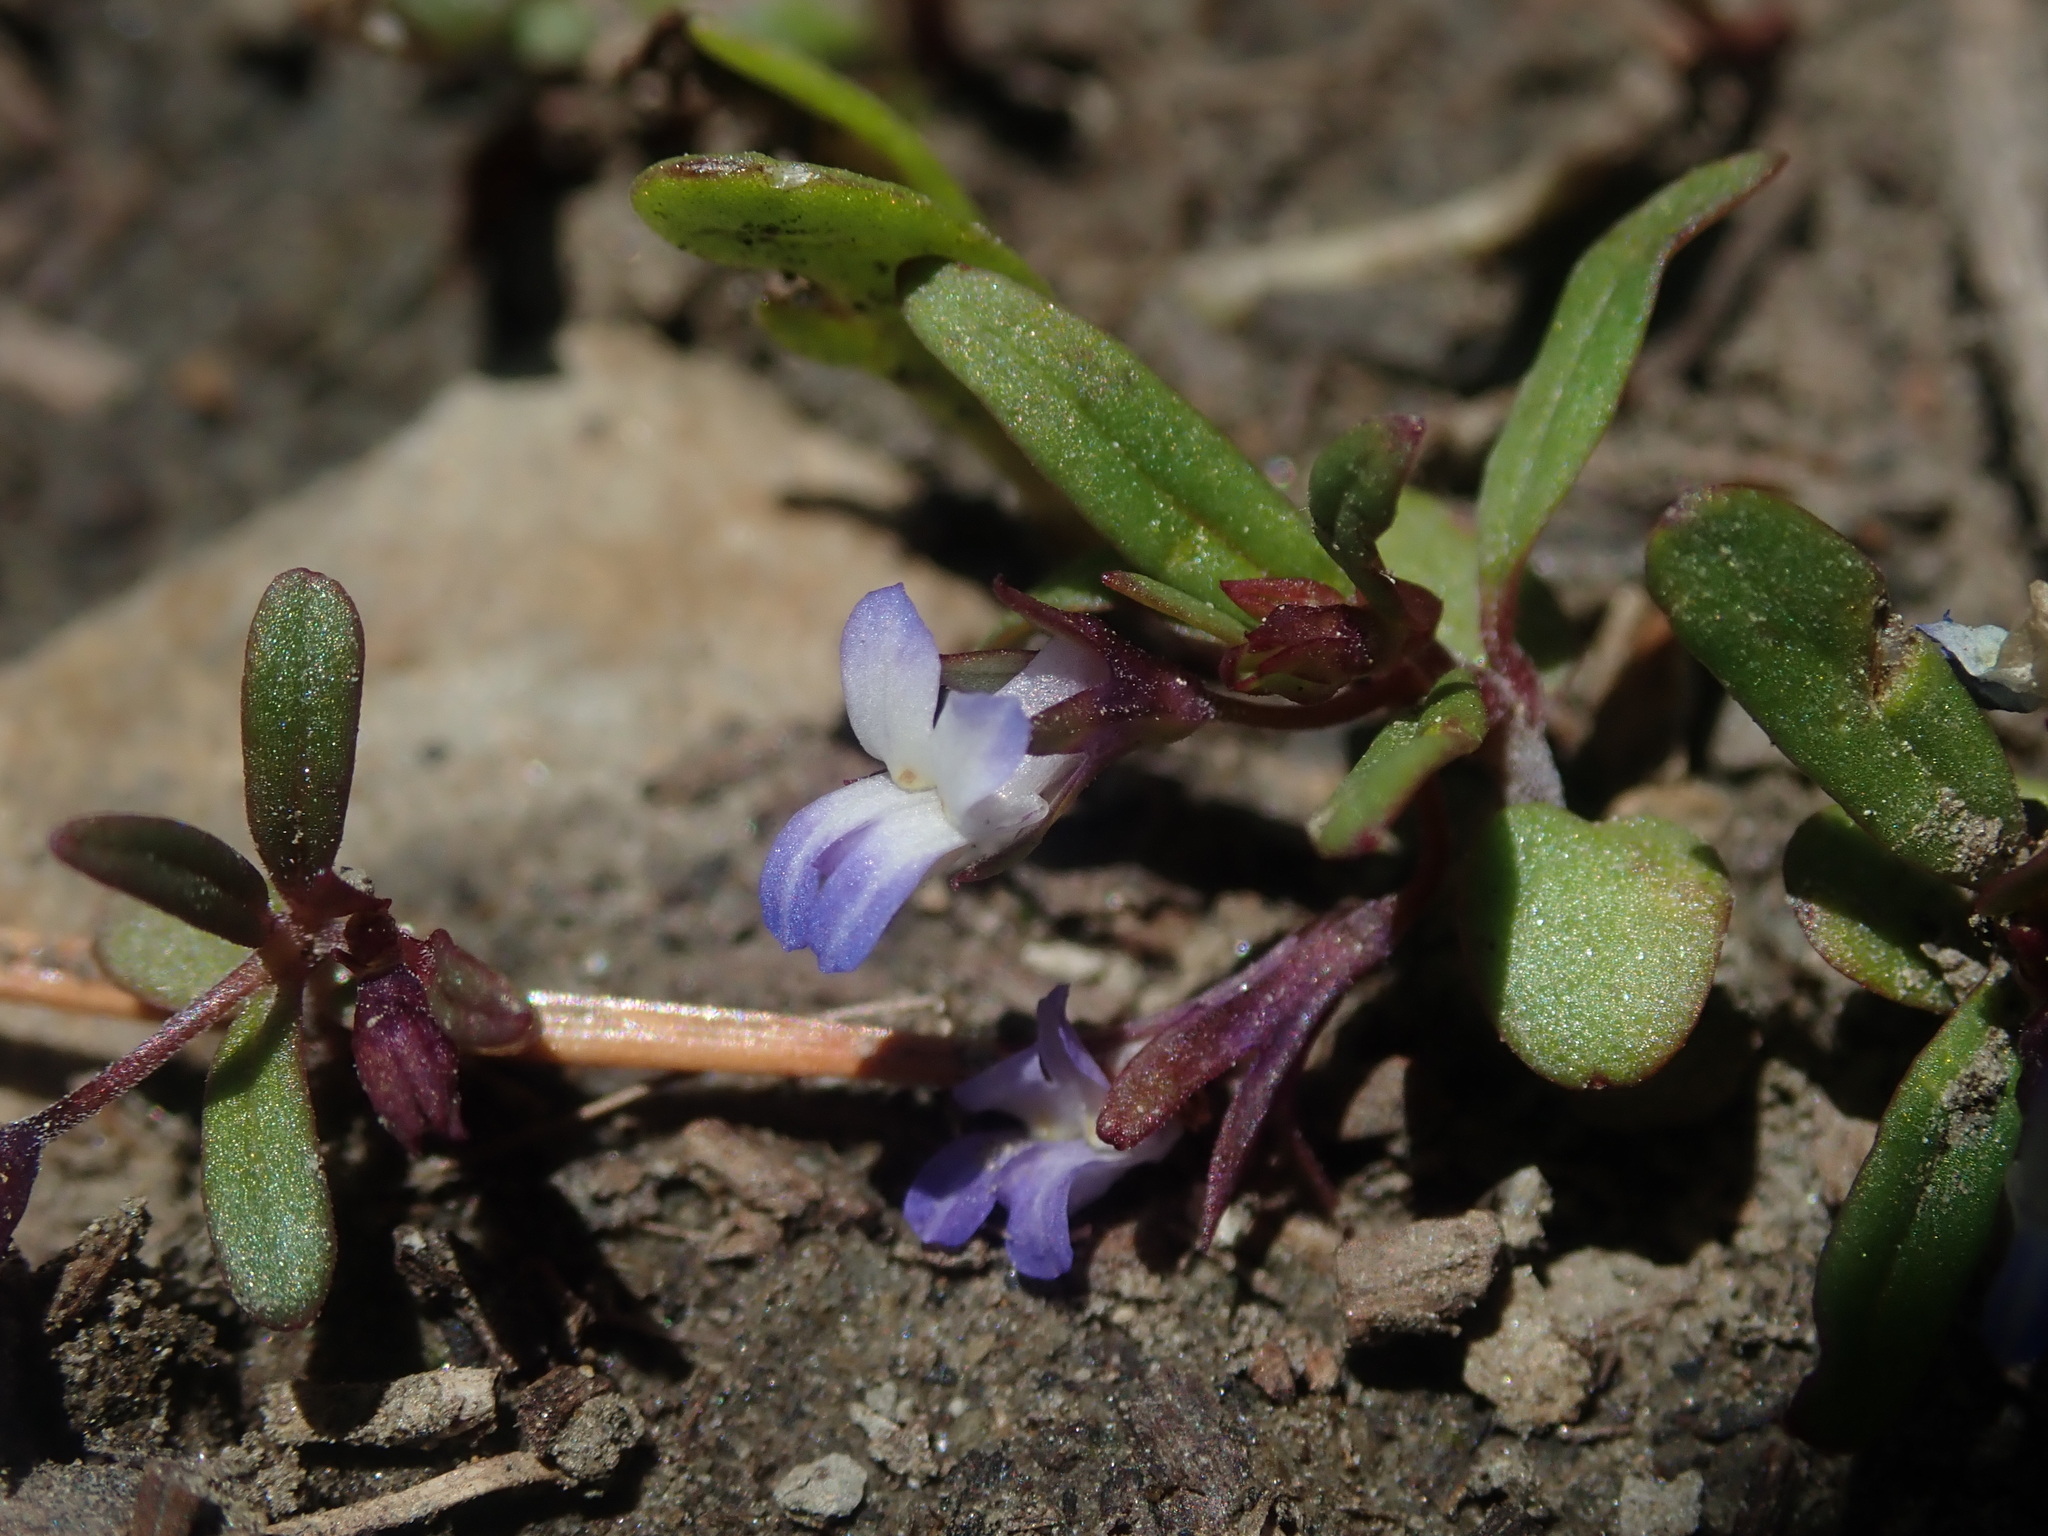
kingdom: Plantae
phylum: Tracheophyta
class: Magnoliopsida
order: Lamiales
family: Plantaginaceae
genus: Collinsia
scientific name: Collinsia parviflora
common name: Blue-lips
